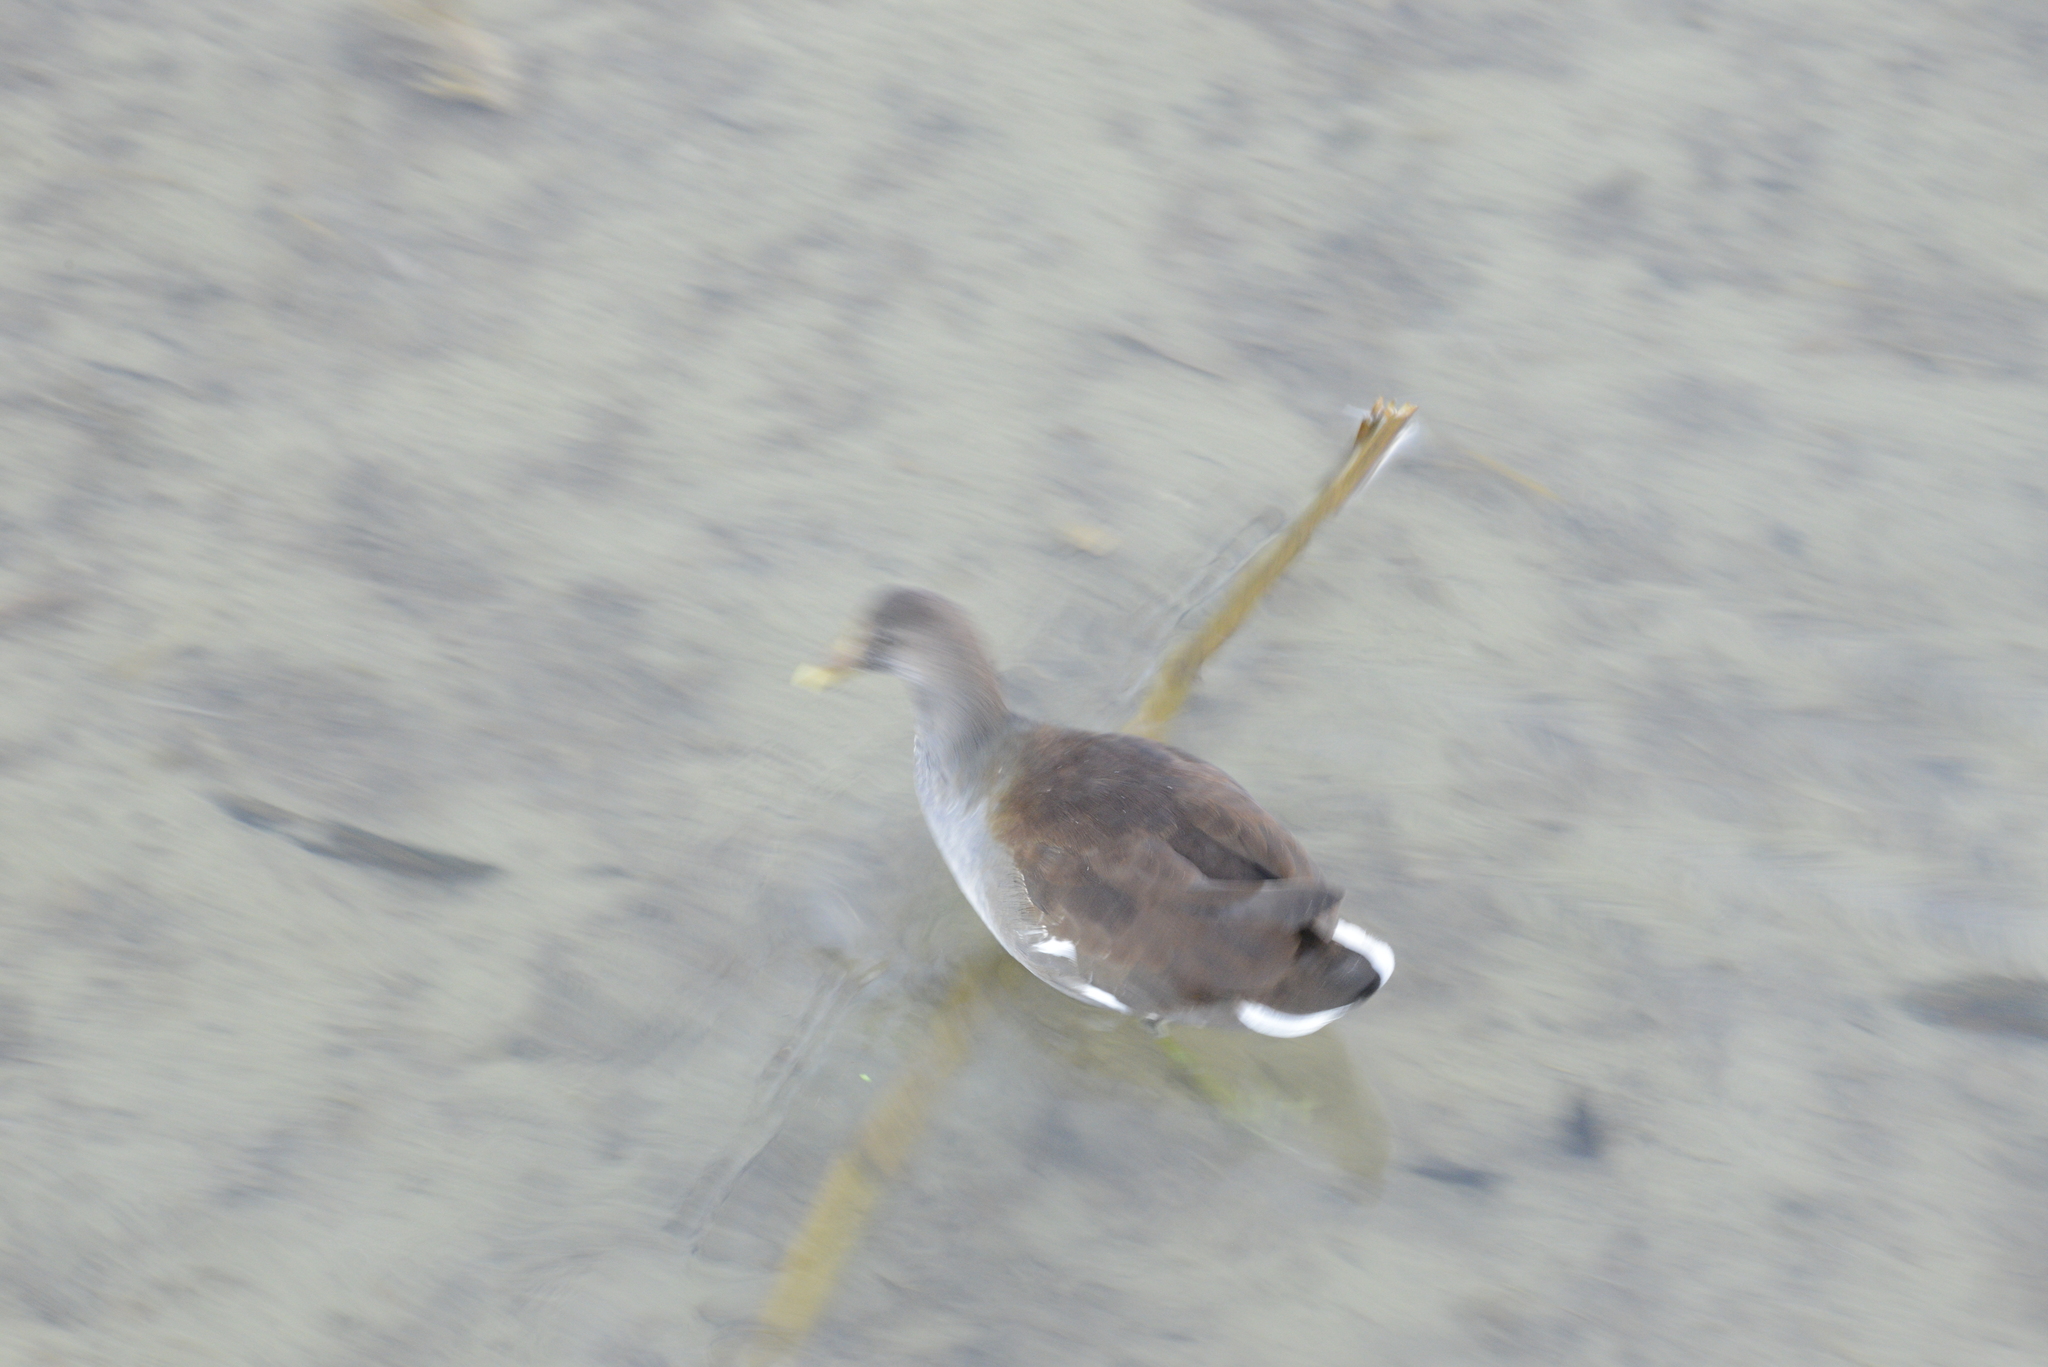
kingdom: Animalia
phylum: Chordata
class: Aves
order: Gruiformes
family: Rallidae
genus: Gallinula
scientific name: Gallinula chloropus
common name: Common moorhen
